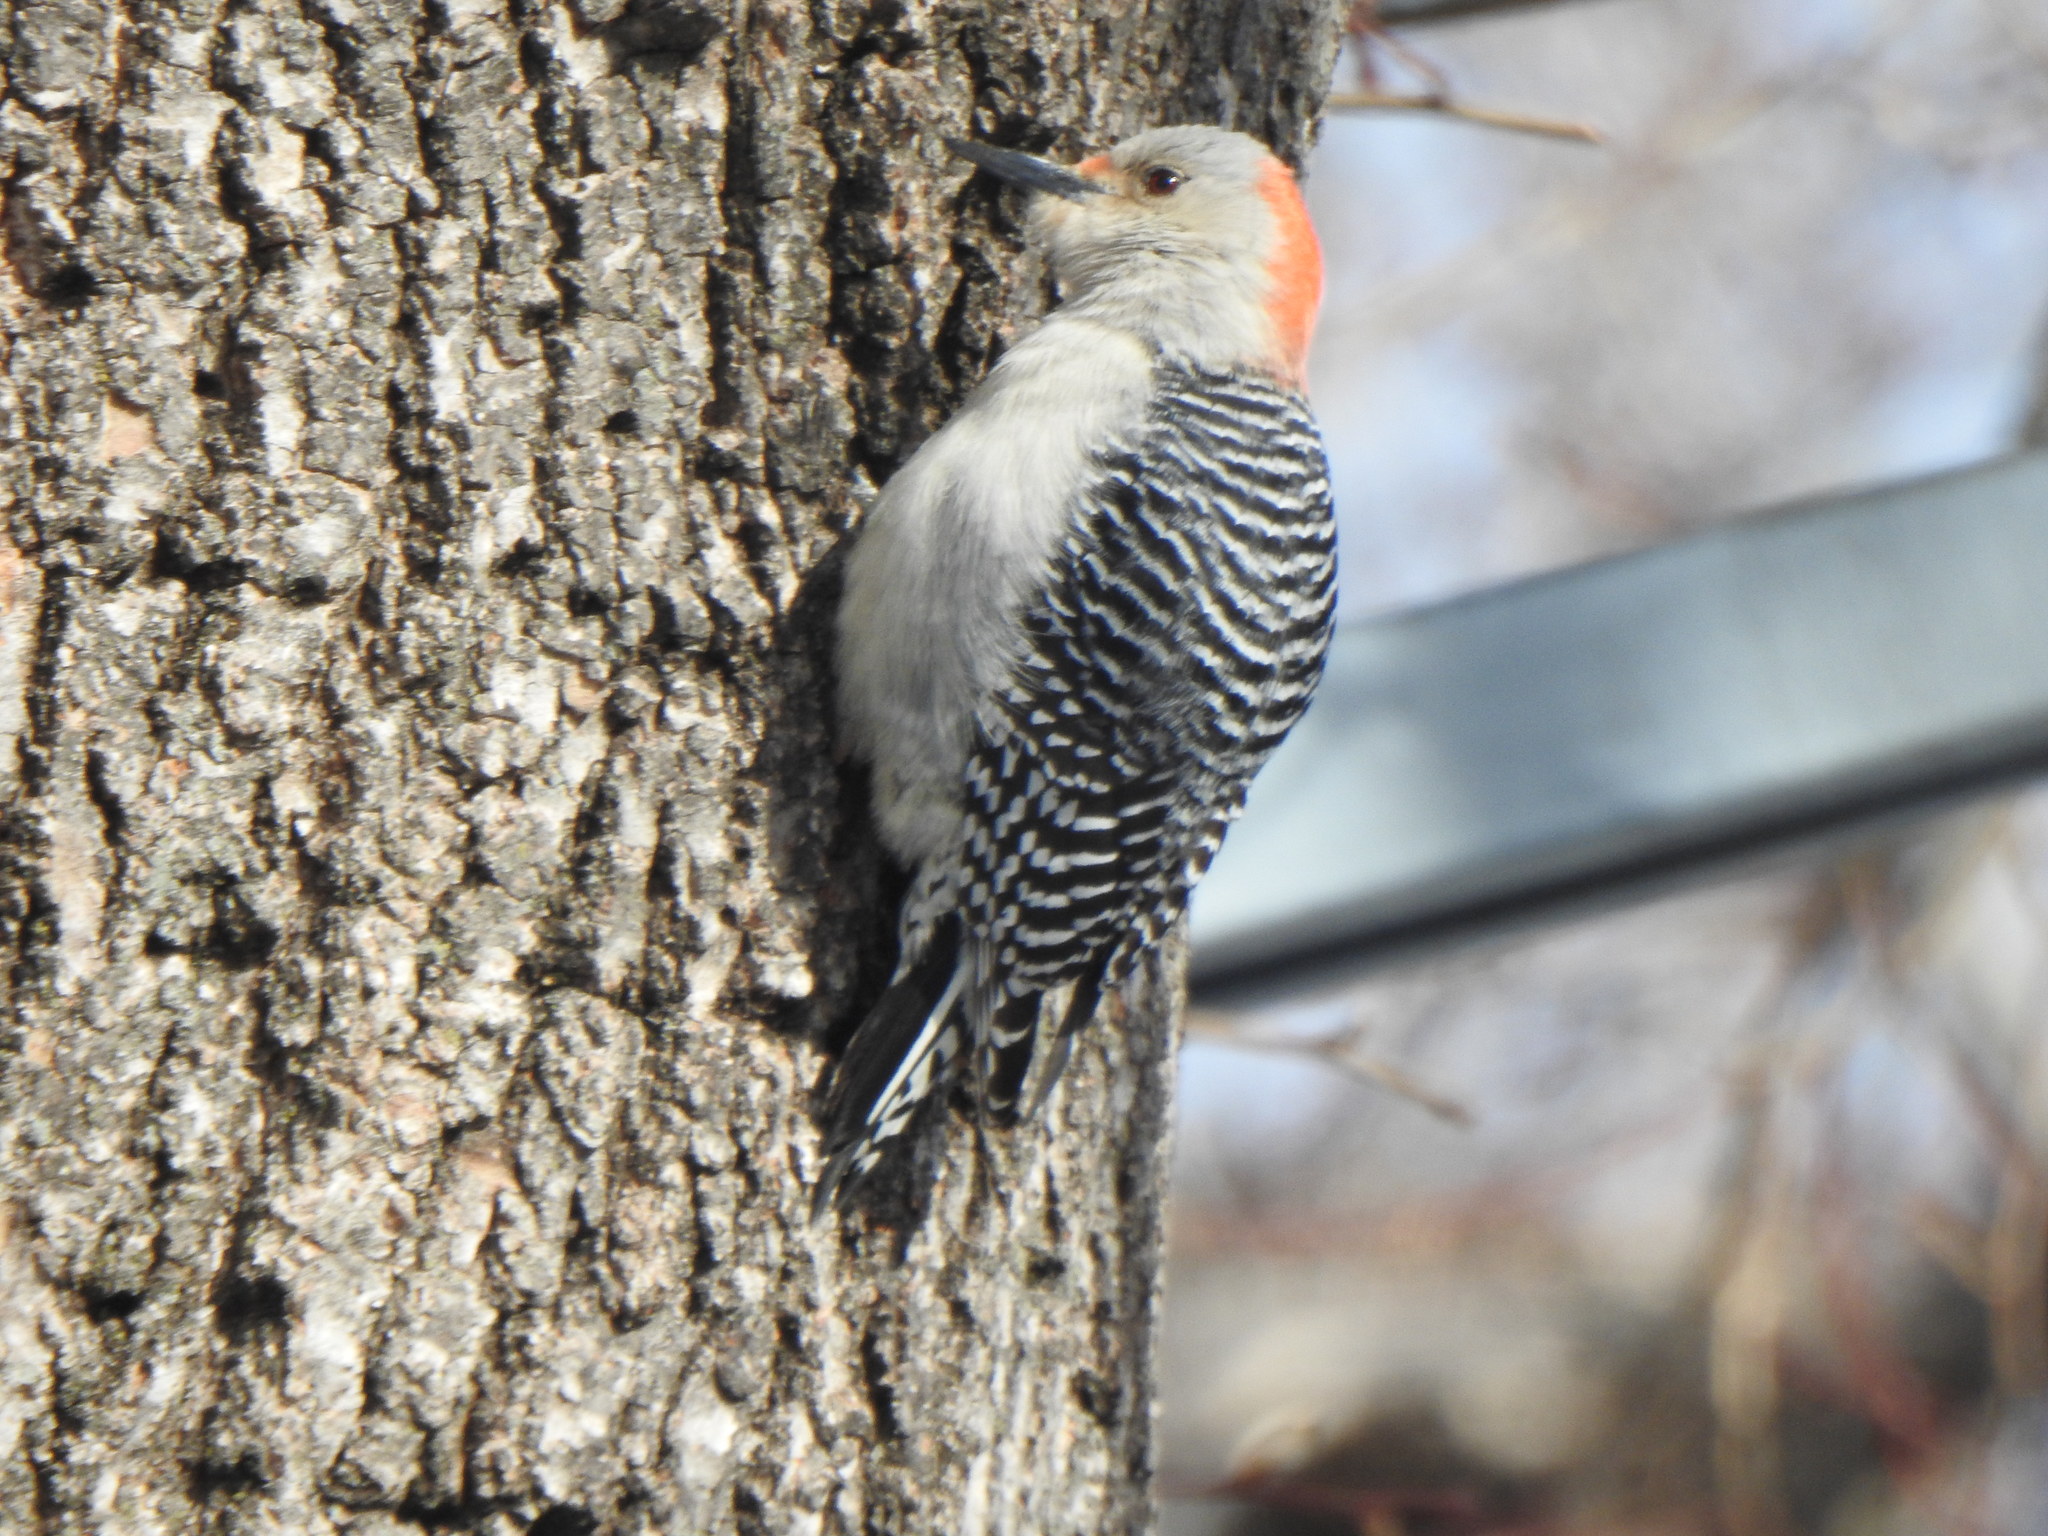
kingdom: Animalia
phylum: Chordata
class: Aves
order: Piciformes
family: Picidae
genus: Melanerpes
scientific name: Melanerpes carolinus
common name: Red-bellied woodpecker
